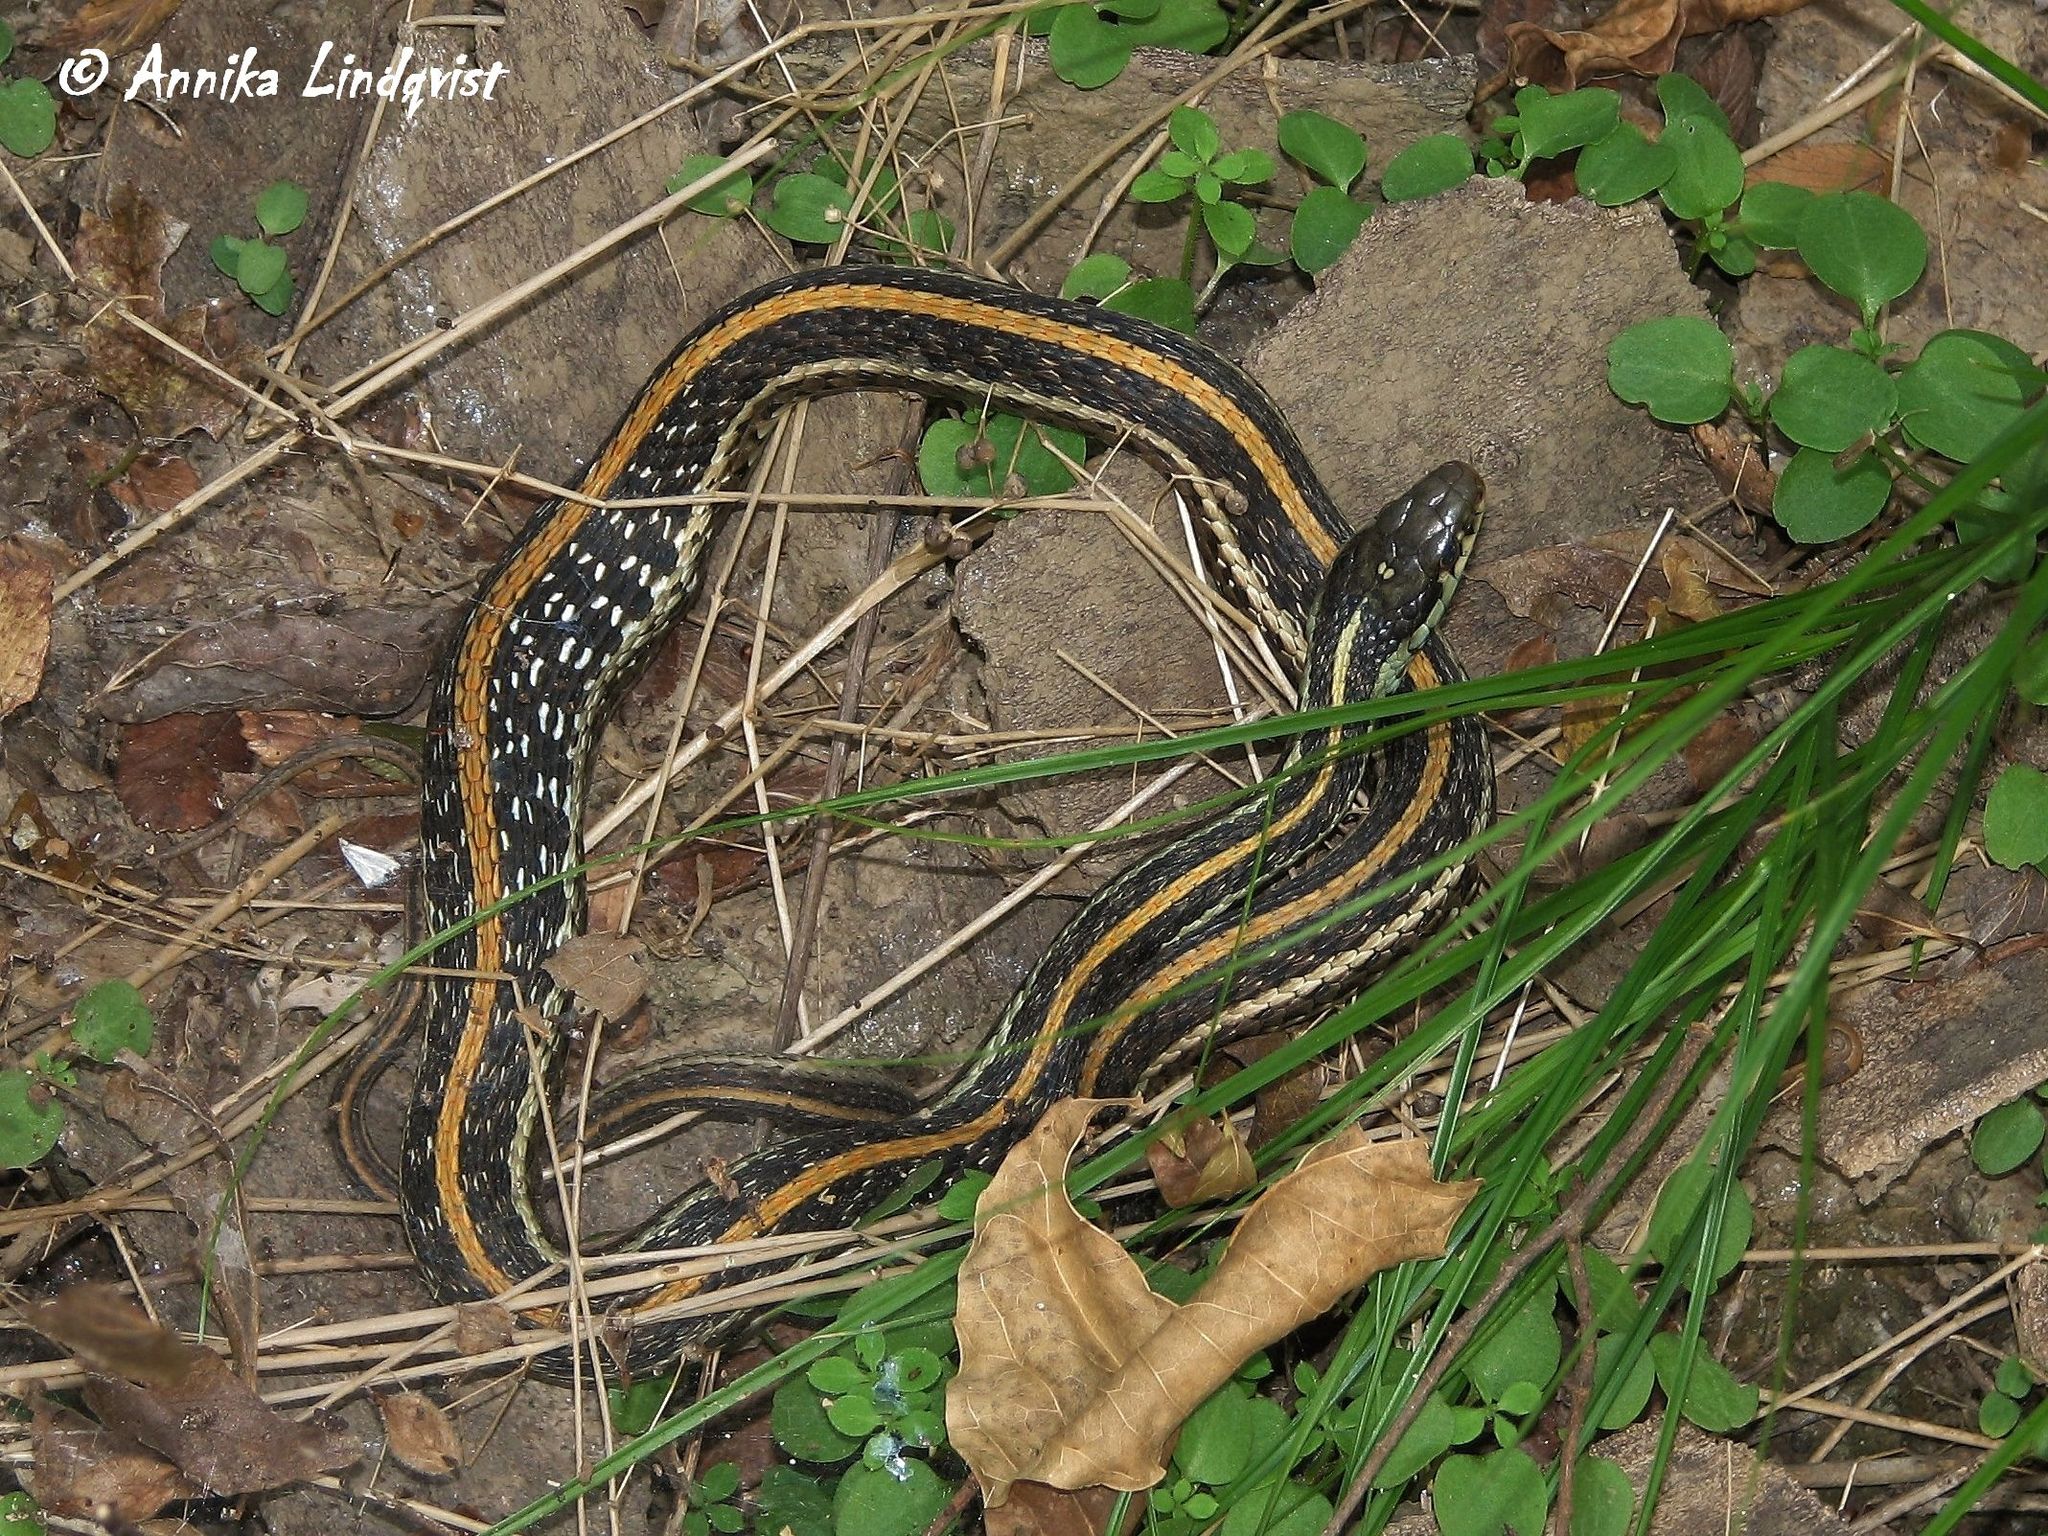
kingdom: Animalia
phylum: Chordata
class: Squamata
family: Colubridae
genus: Thamnophis
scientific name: Thamnophis sirtalis
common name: Common garter snake
